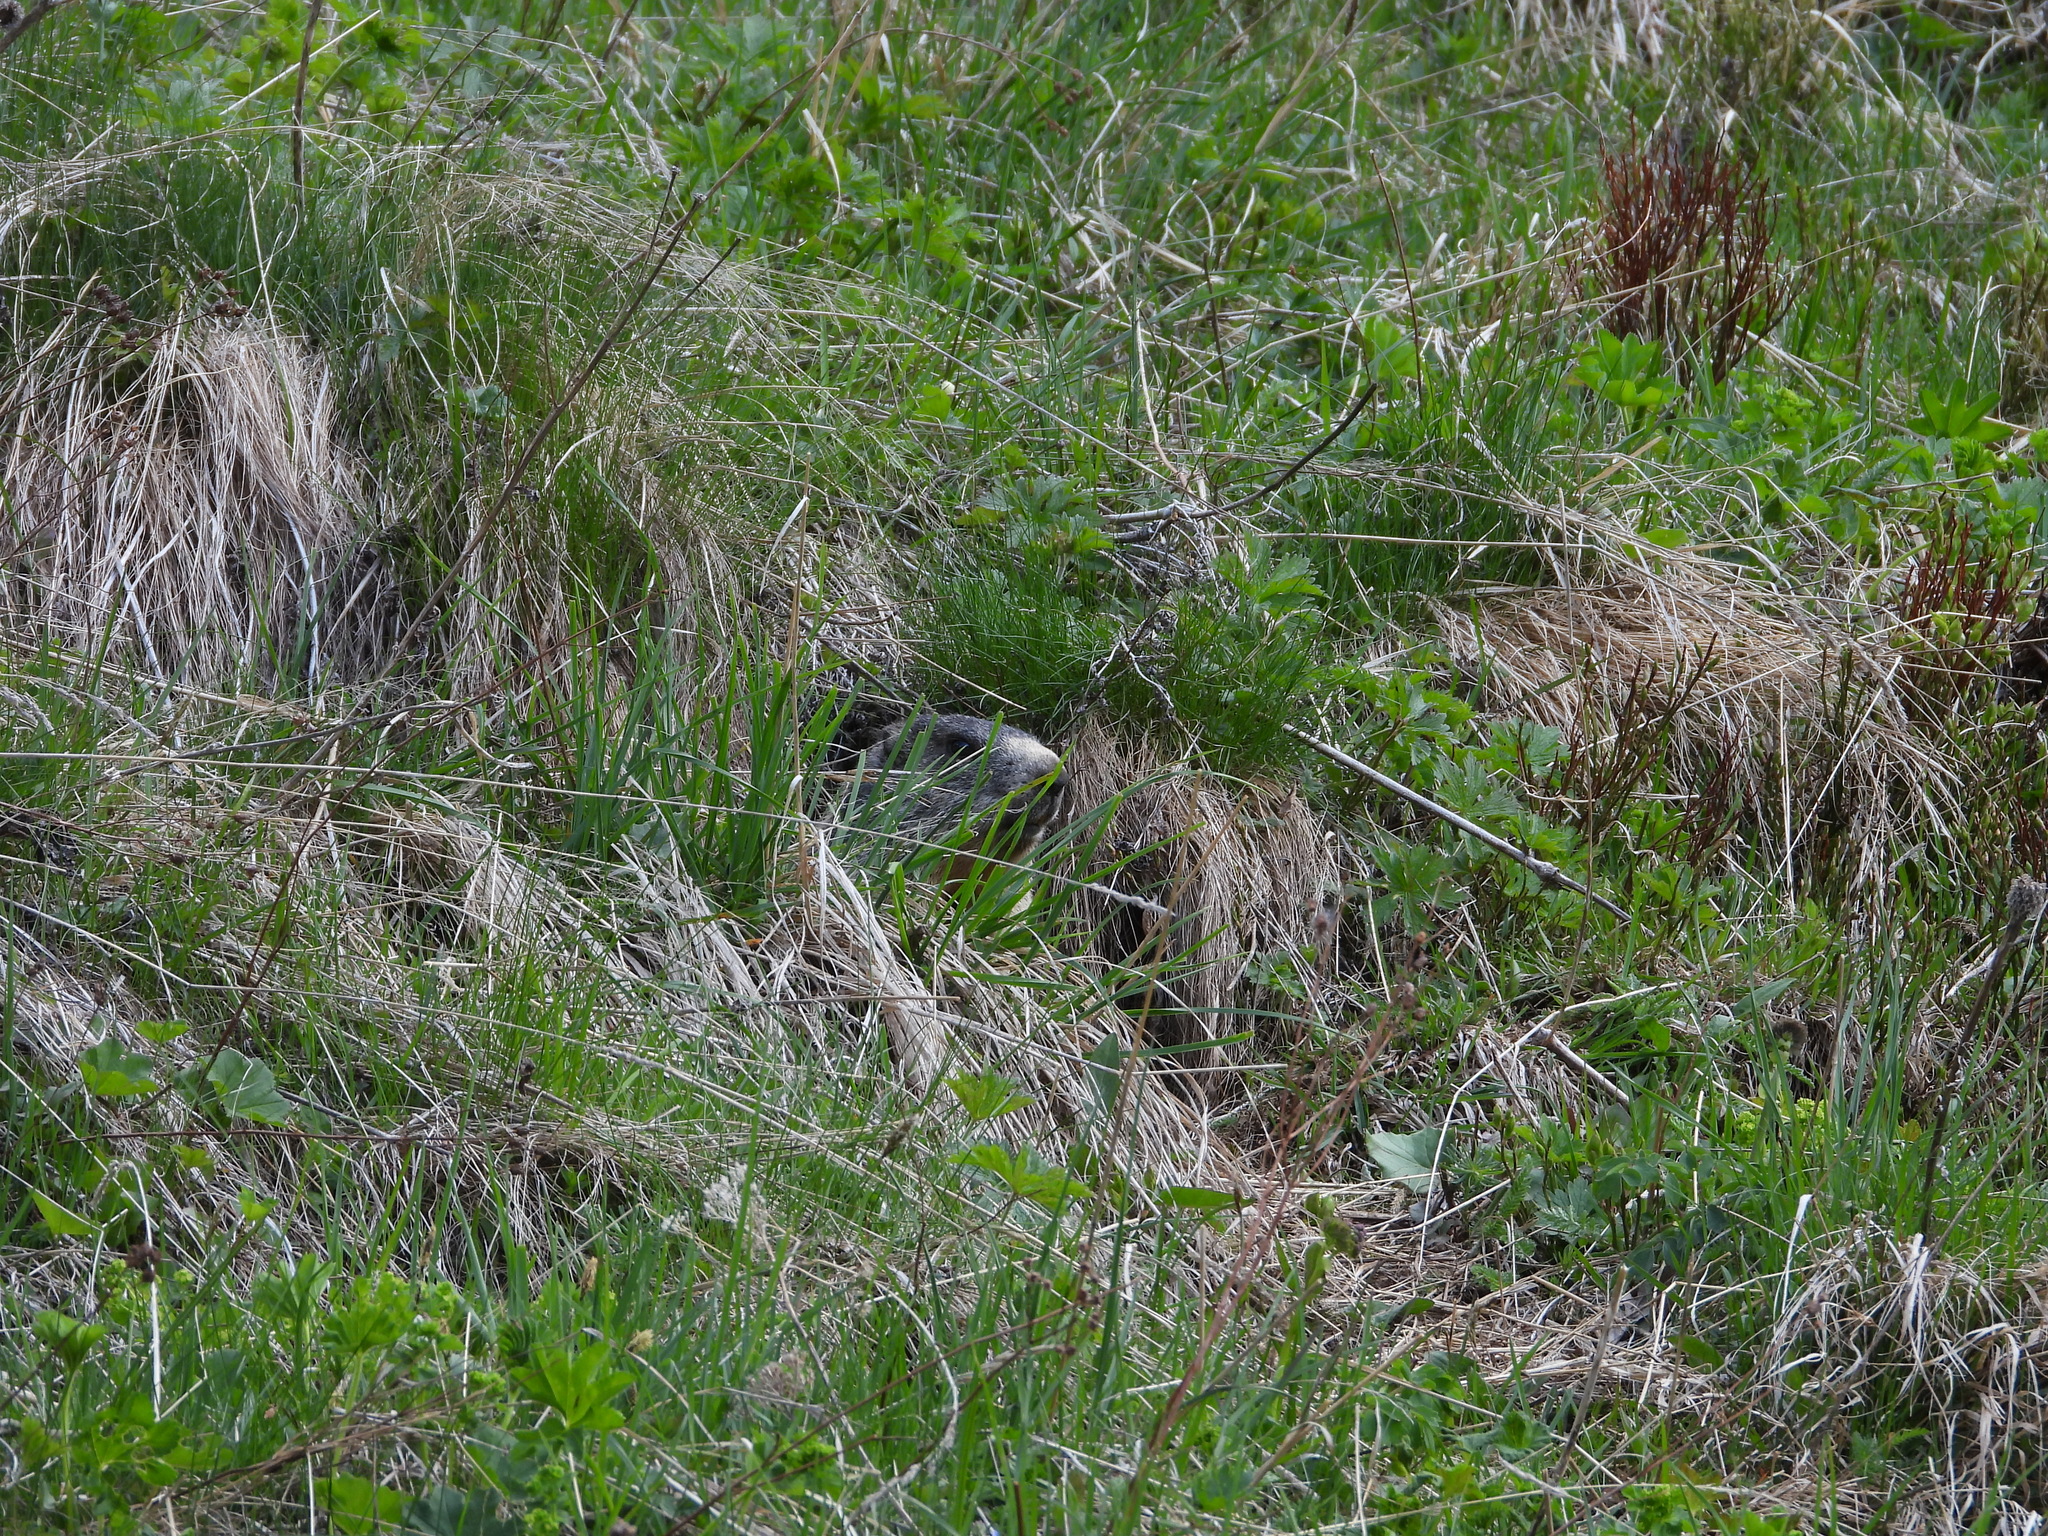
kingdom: Animalia
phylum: Chordata
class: Mammalia
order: Rodentia
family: Sciuridae
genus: Marmota
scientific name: Marmota marmota
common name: Alpine marmot
